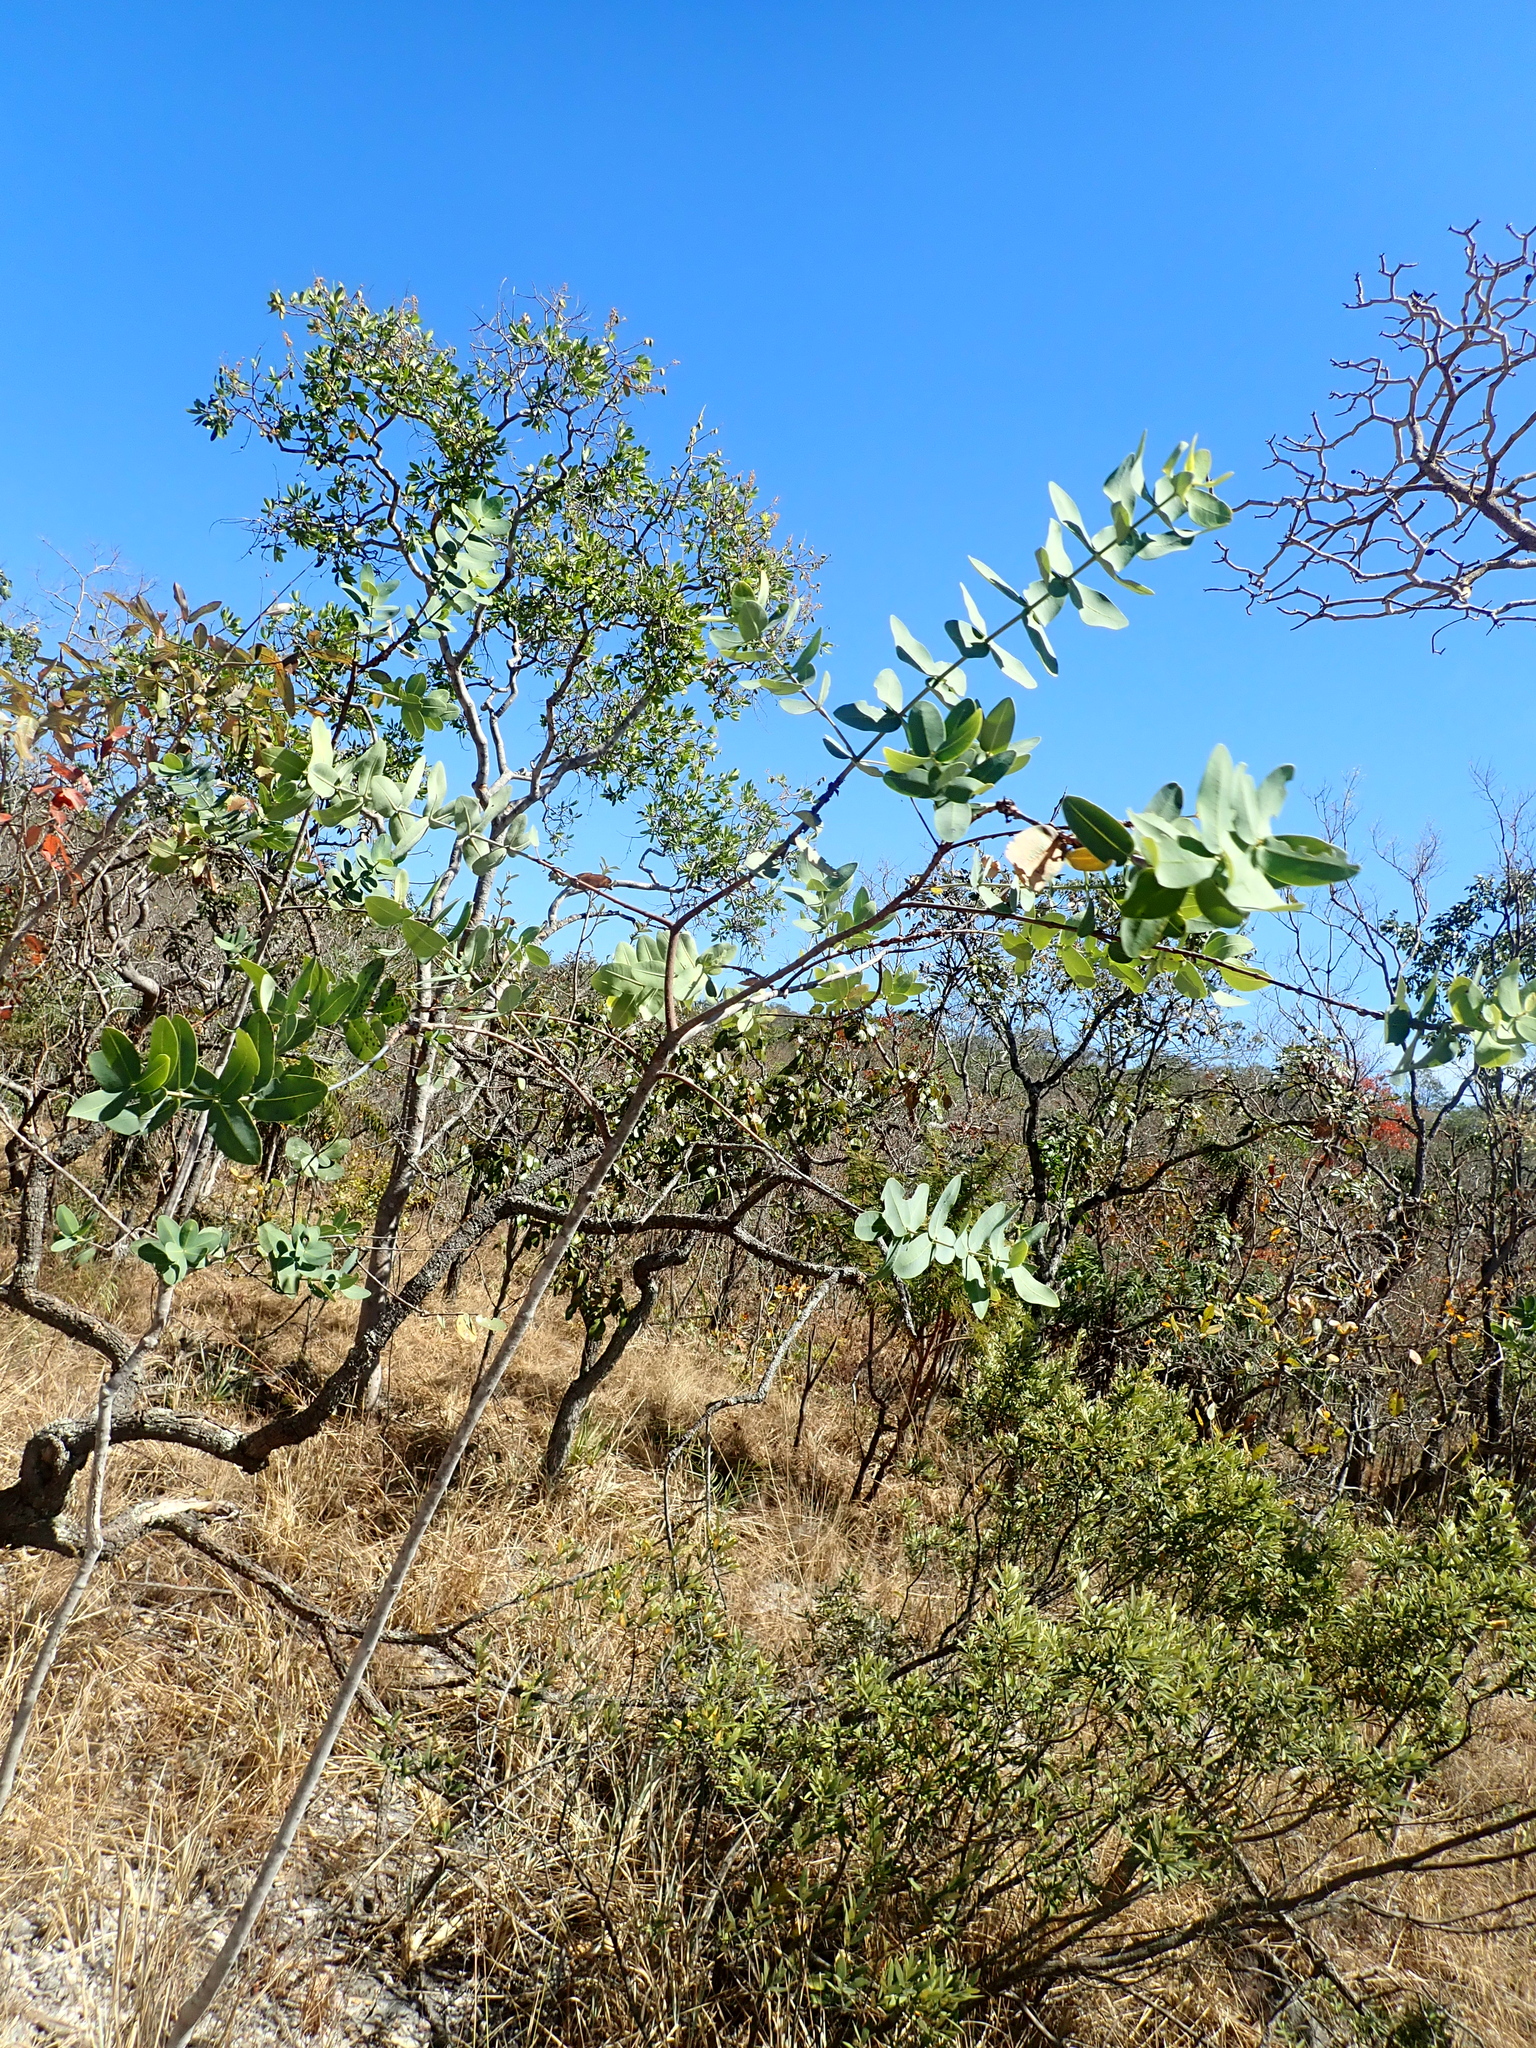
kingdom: Plantae
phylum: Tracheophyta
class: Magnoliopsida
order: Myrtales
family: Vochysiaceae
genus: Vochysia
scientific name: Vochysia elliptica
